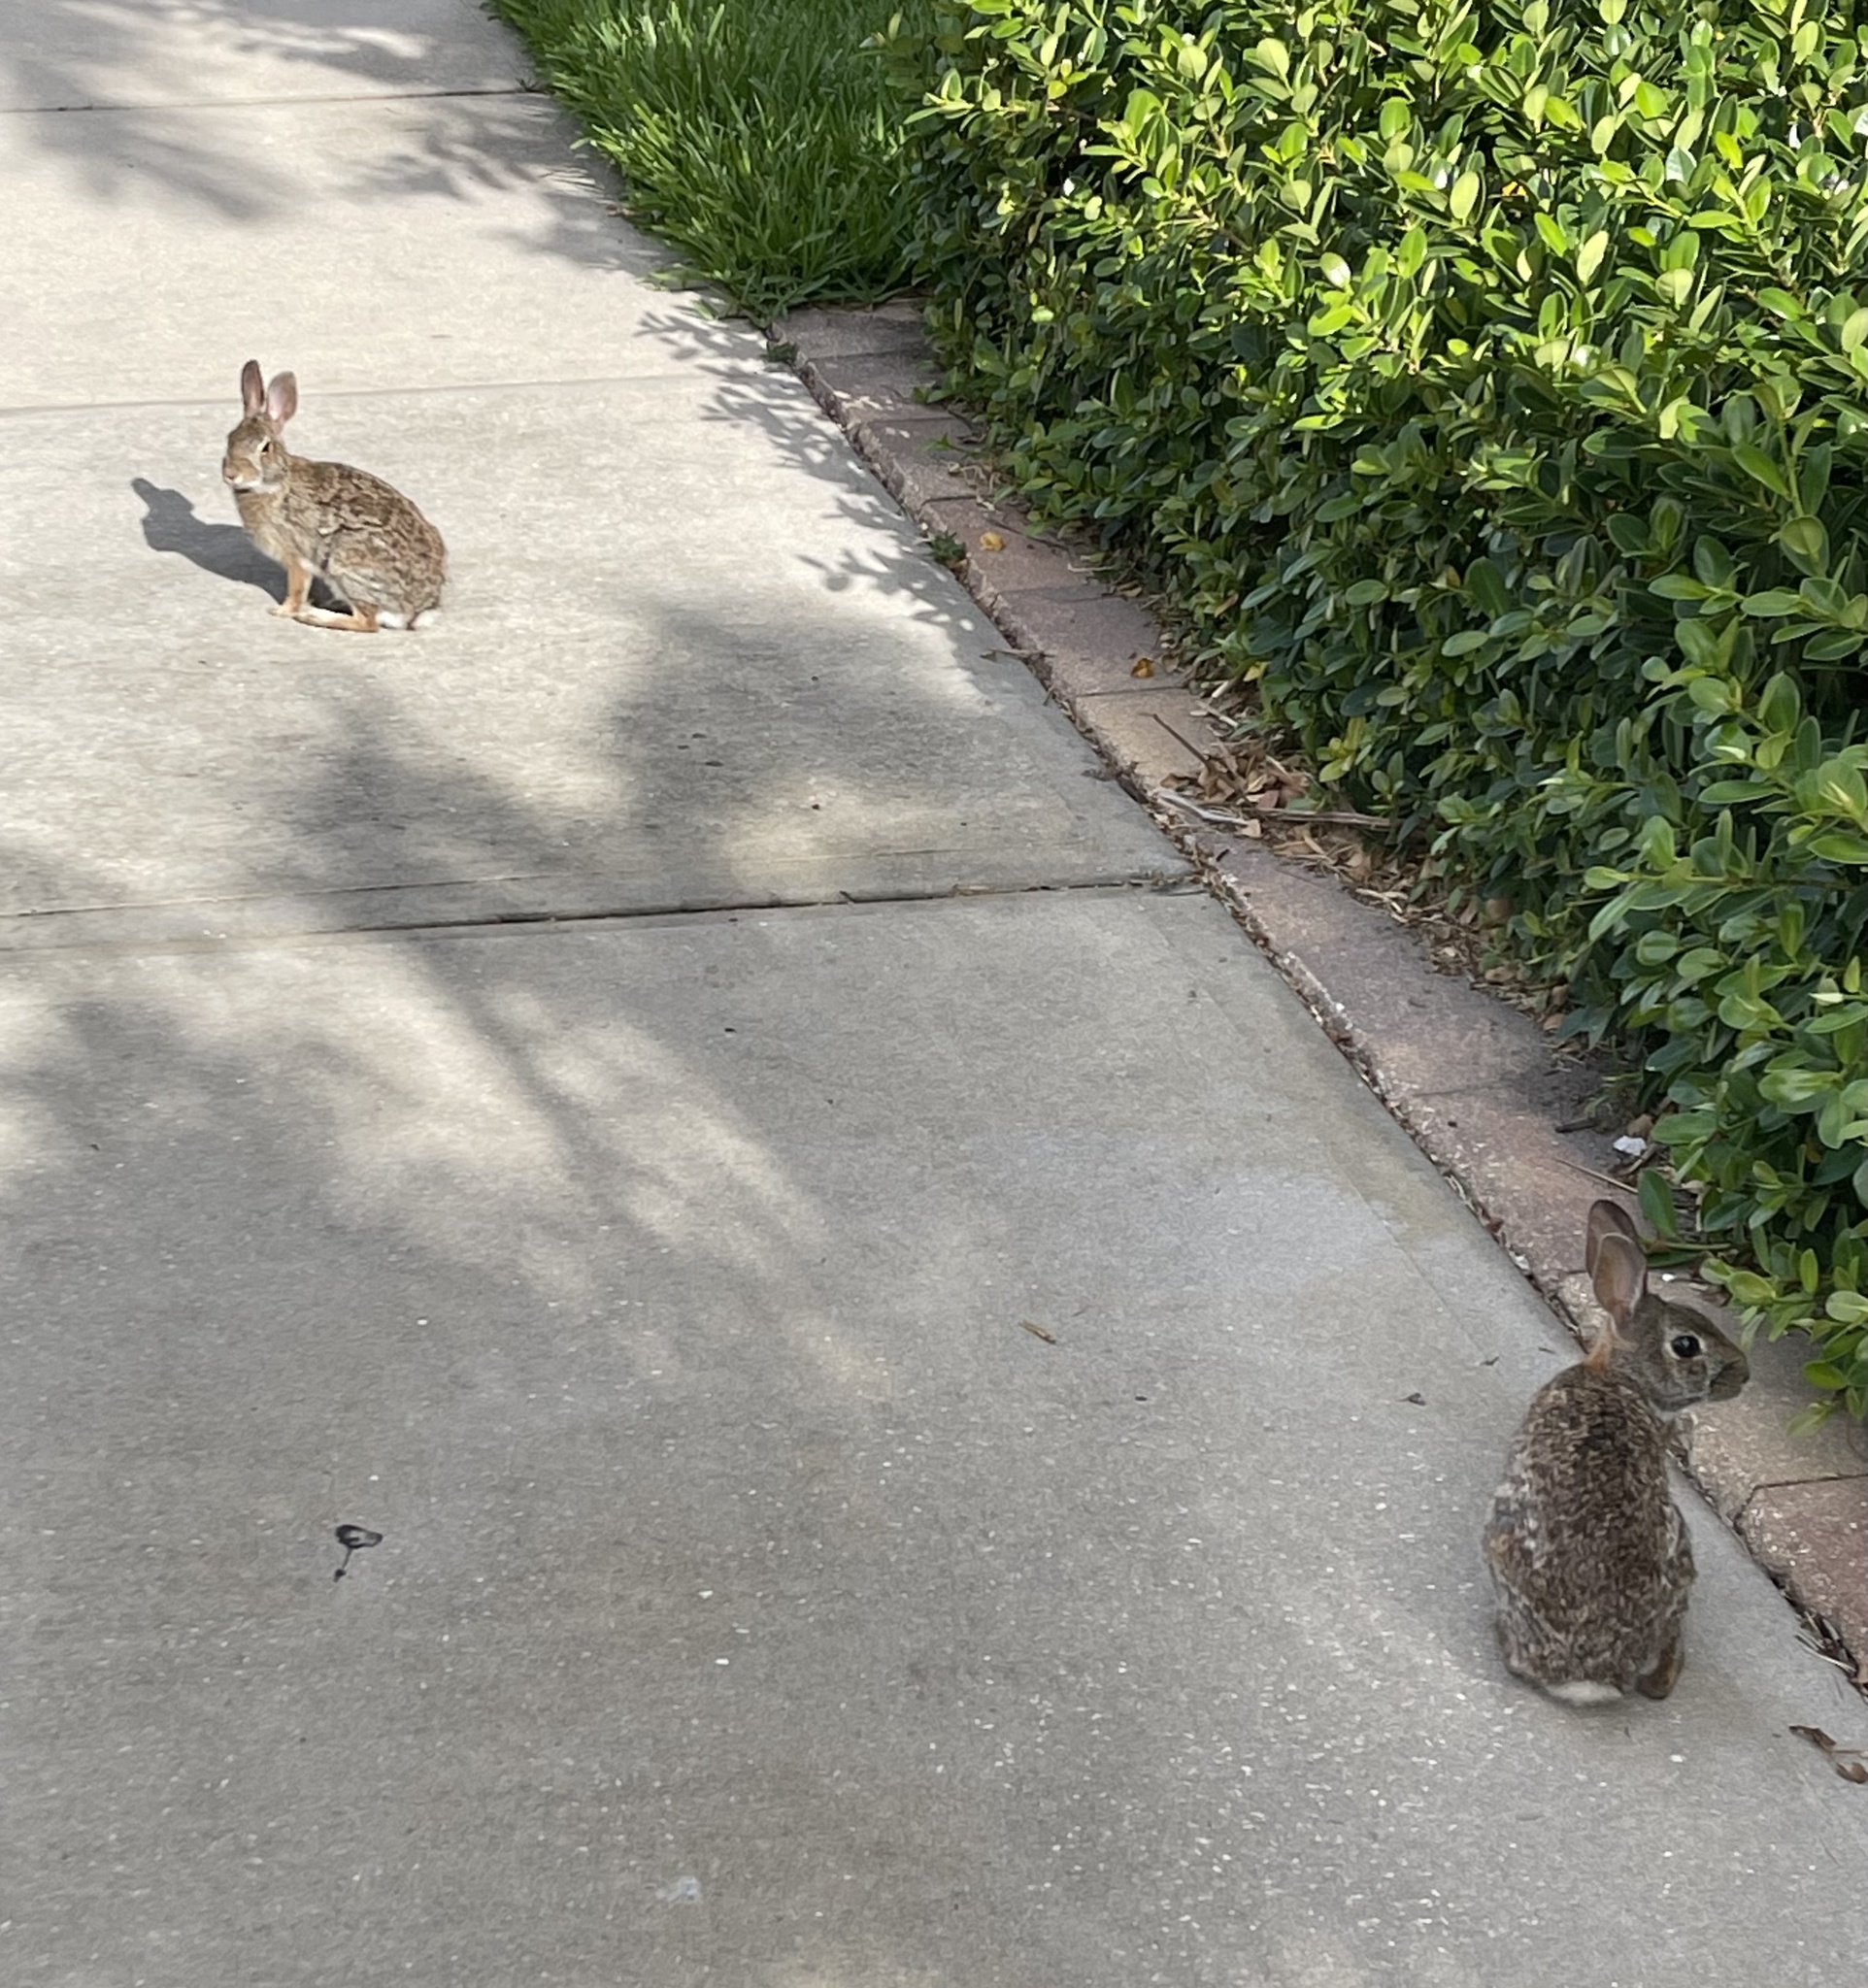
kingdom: Animalia
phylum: Chordata
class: Mammalia
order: Lagomorpha
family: Leporidae
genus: Sylvilagus
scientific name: Sylvilagus floridanus
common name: Eastern cottontail
